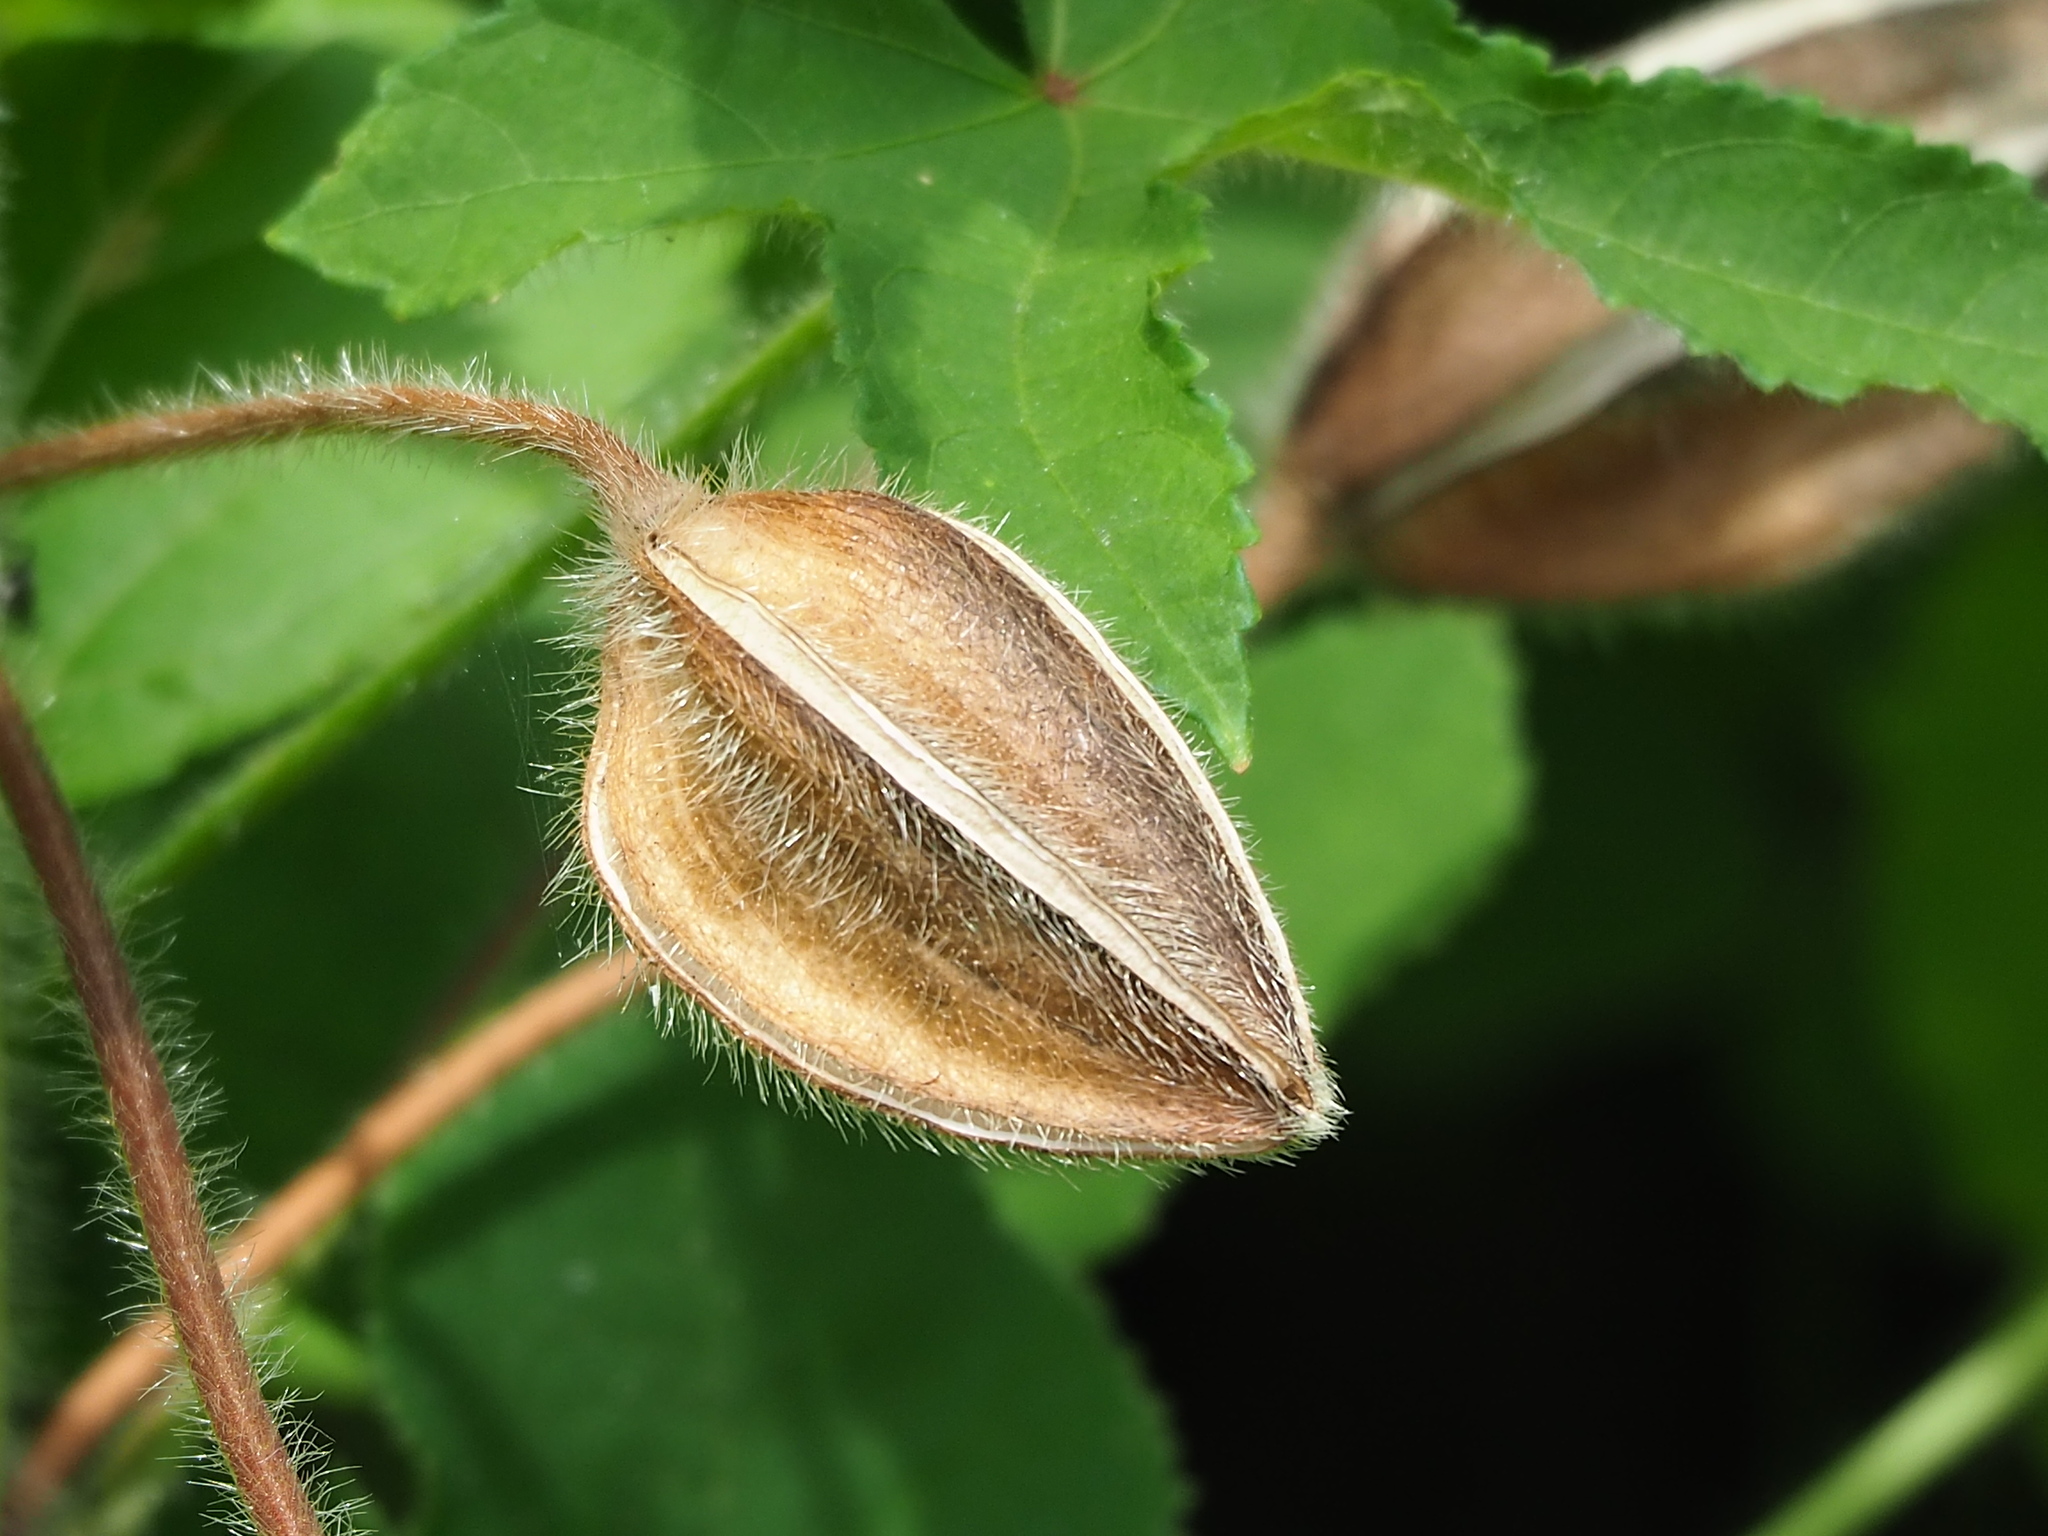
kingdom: Plantae
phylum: Tracheophyta
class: Magnoliopsida
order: Malvales
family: Malvaceae
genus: Abelmoschus
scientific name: Abelmoschus moschatus
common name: Musk okra
